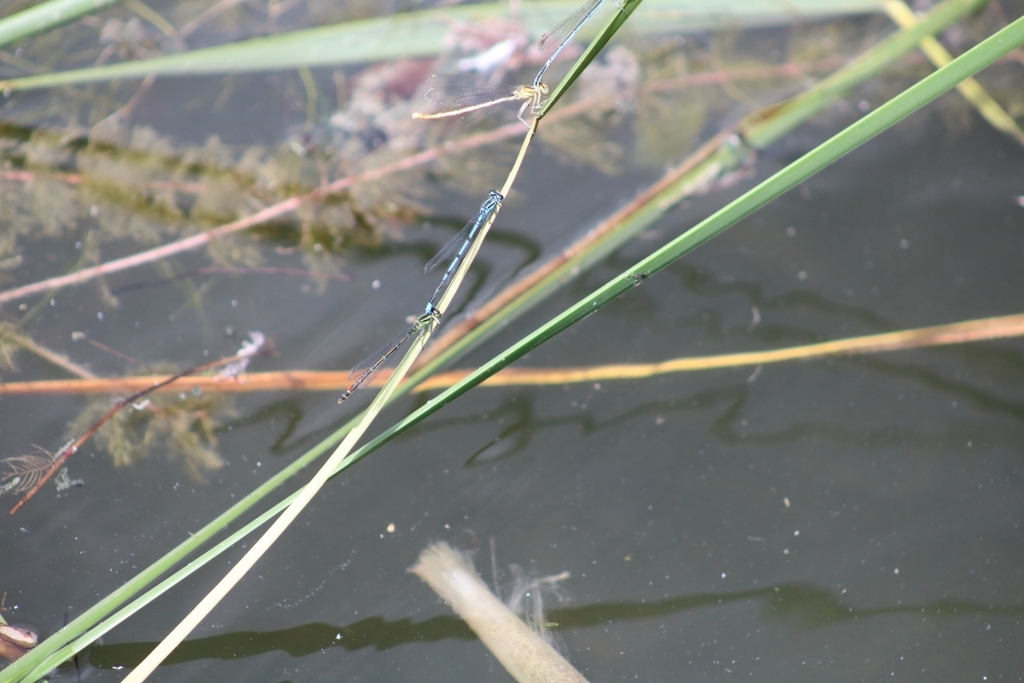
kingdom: Animalia
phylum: Arthropoda
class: Insecta
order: Odonata
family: Coenagrionidae
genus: Coenagrion
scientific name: Coenagrion puella
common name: Azure damselfly
